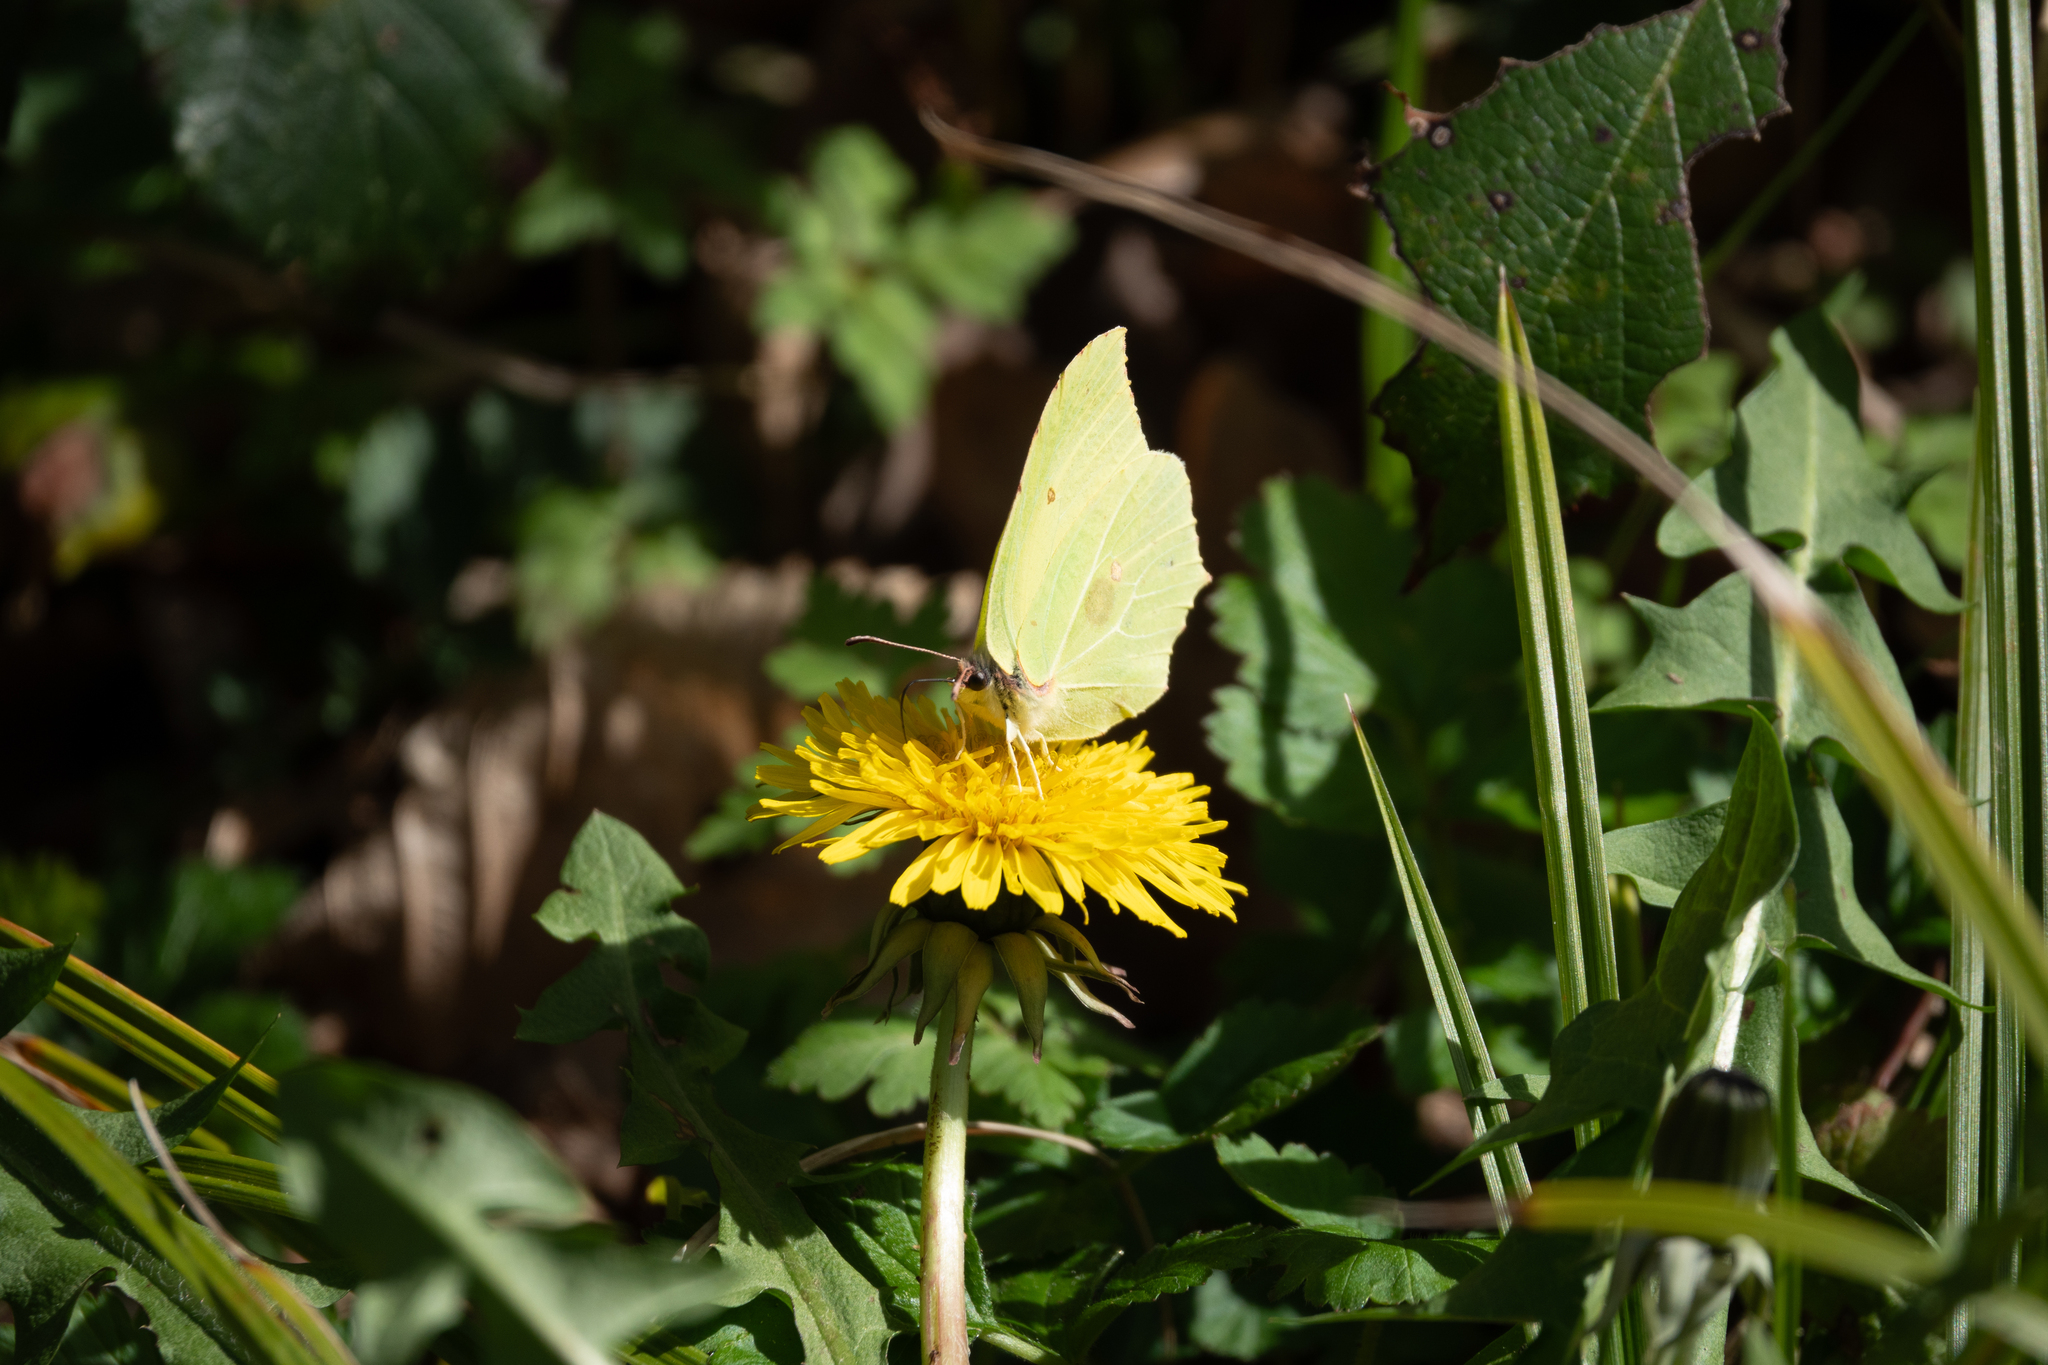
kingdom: Animalia
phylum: Arthropoda
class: Insecta
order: Lepidoptera
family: Pieridae
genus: Gonepteryx
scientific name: Gonepteryx rhamni
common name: Brimstone
